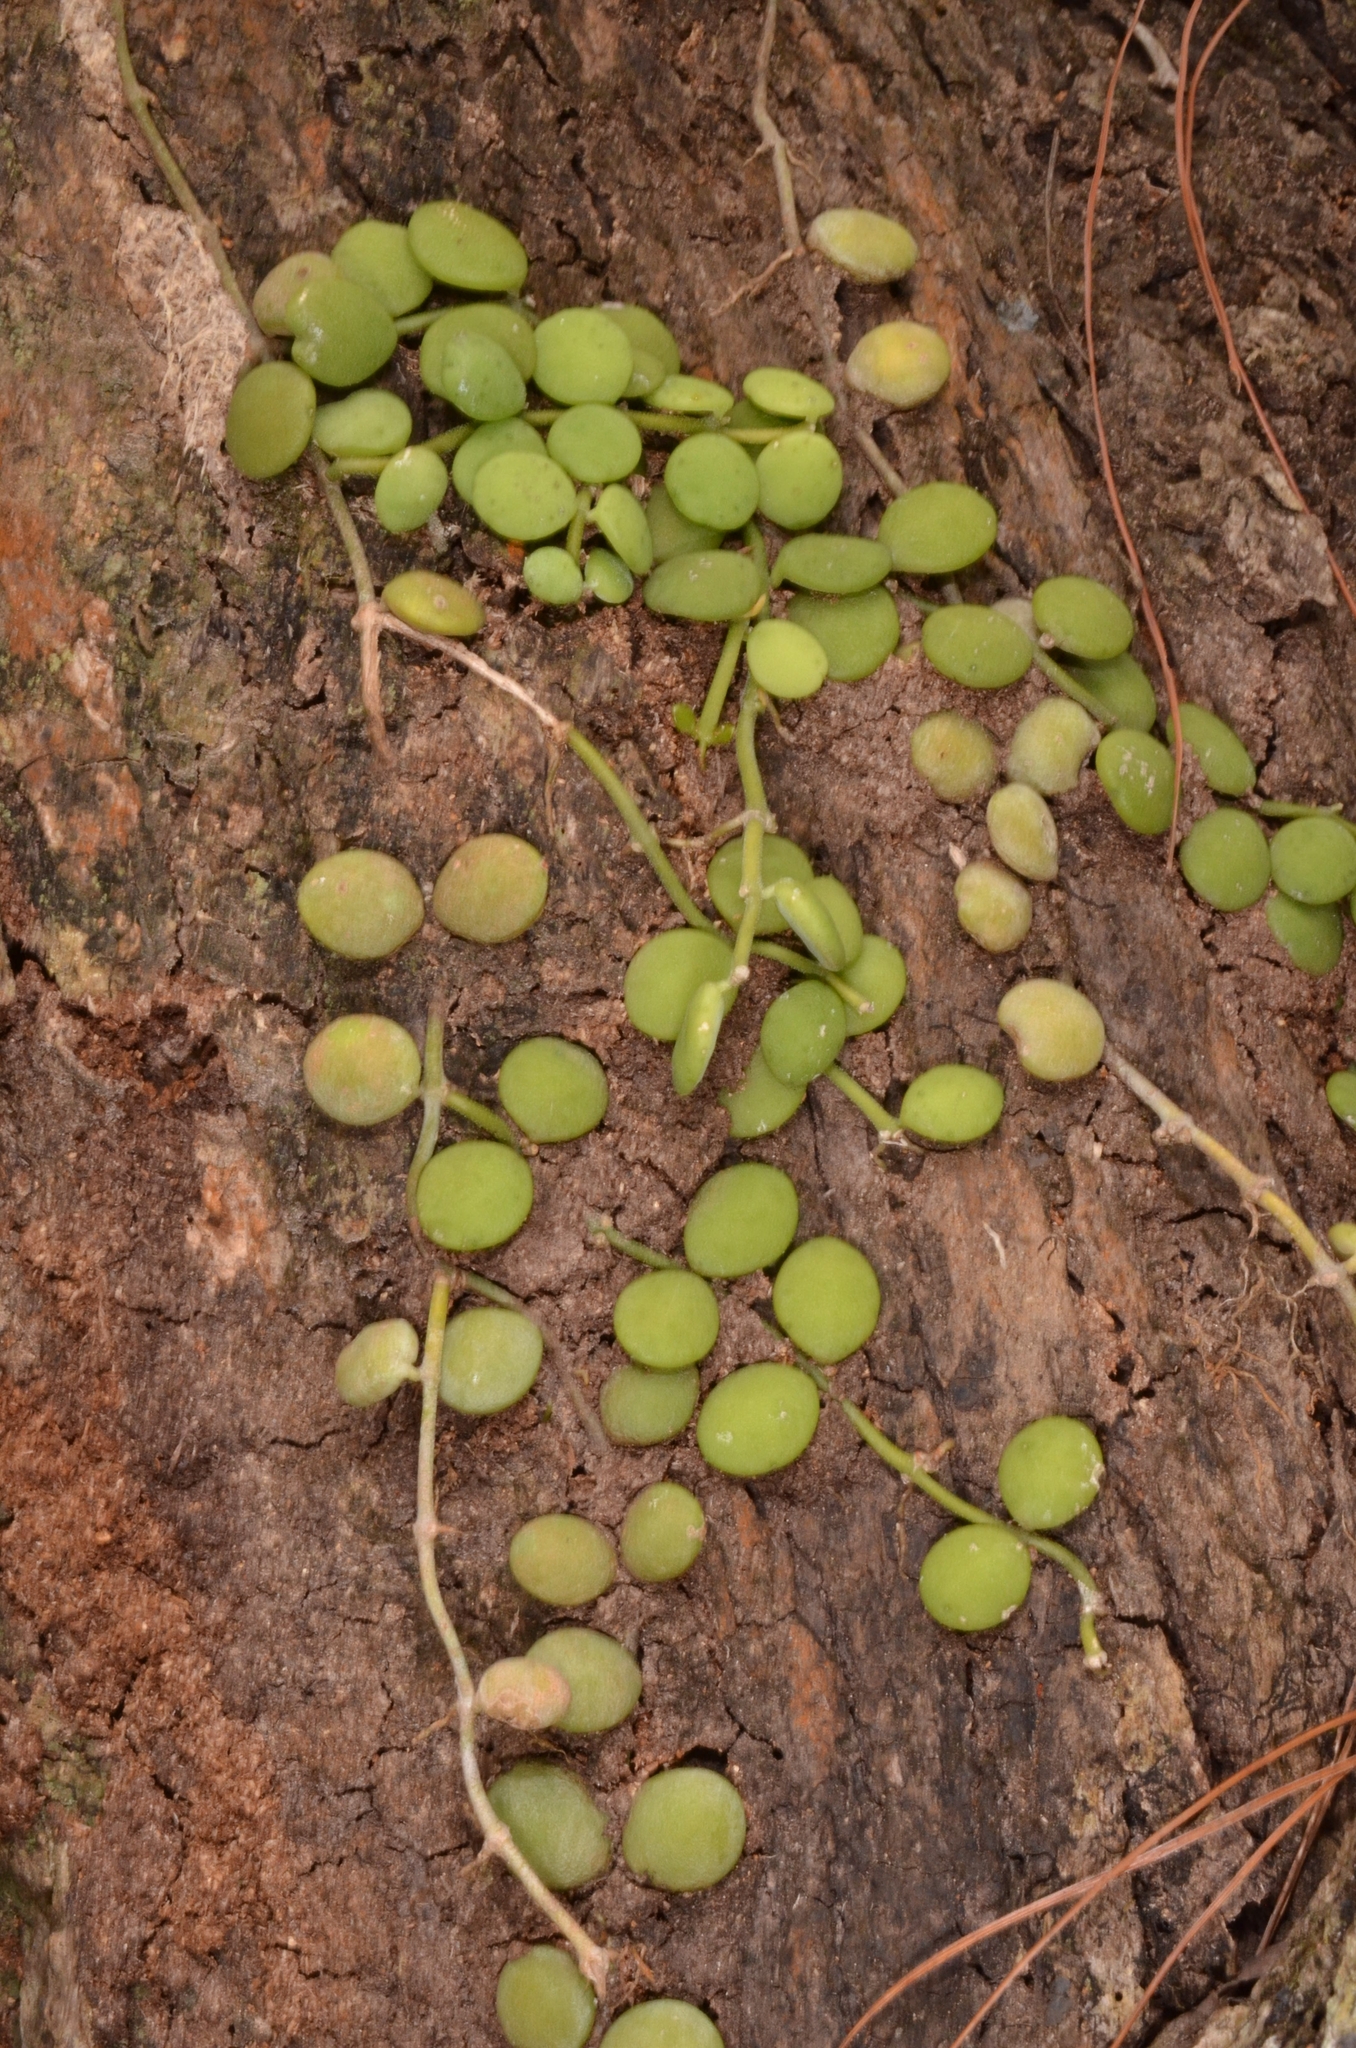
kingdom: Plantae
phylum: Tracheophyta
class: Magnoliopsida
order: Gentianales
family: Apocynaceae
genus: Dischidia
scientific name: Dischidia nummularia
